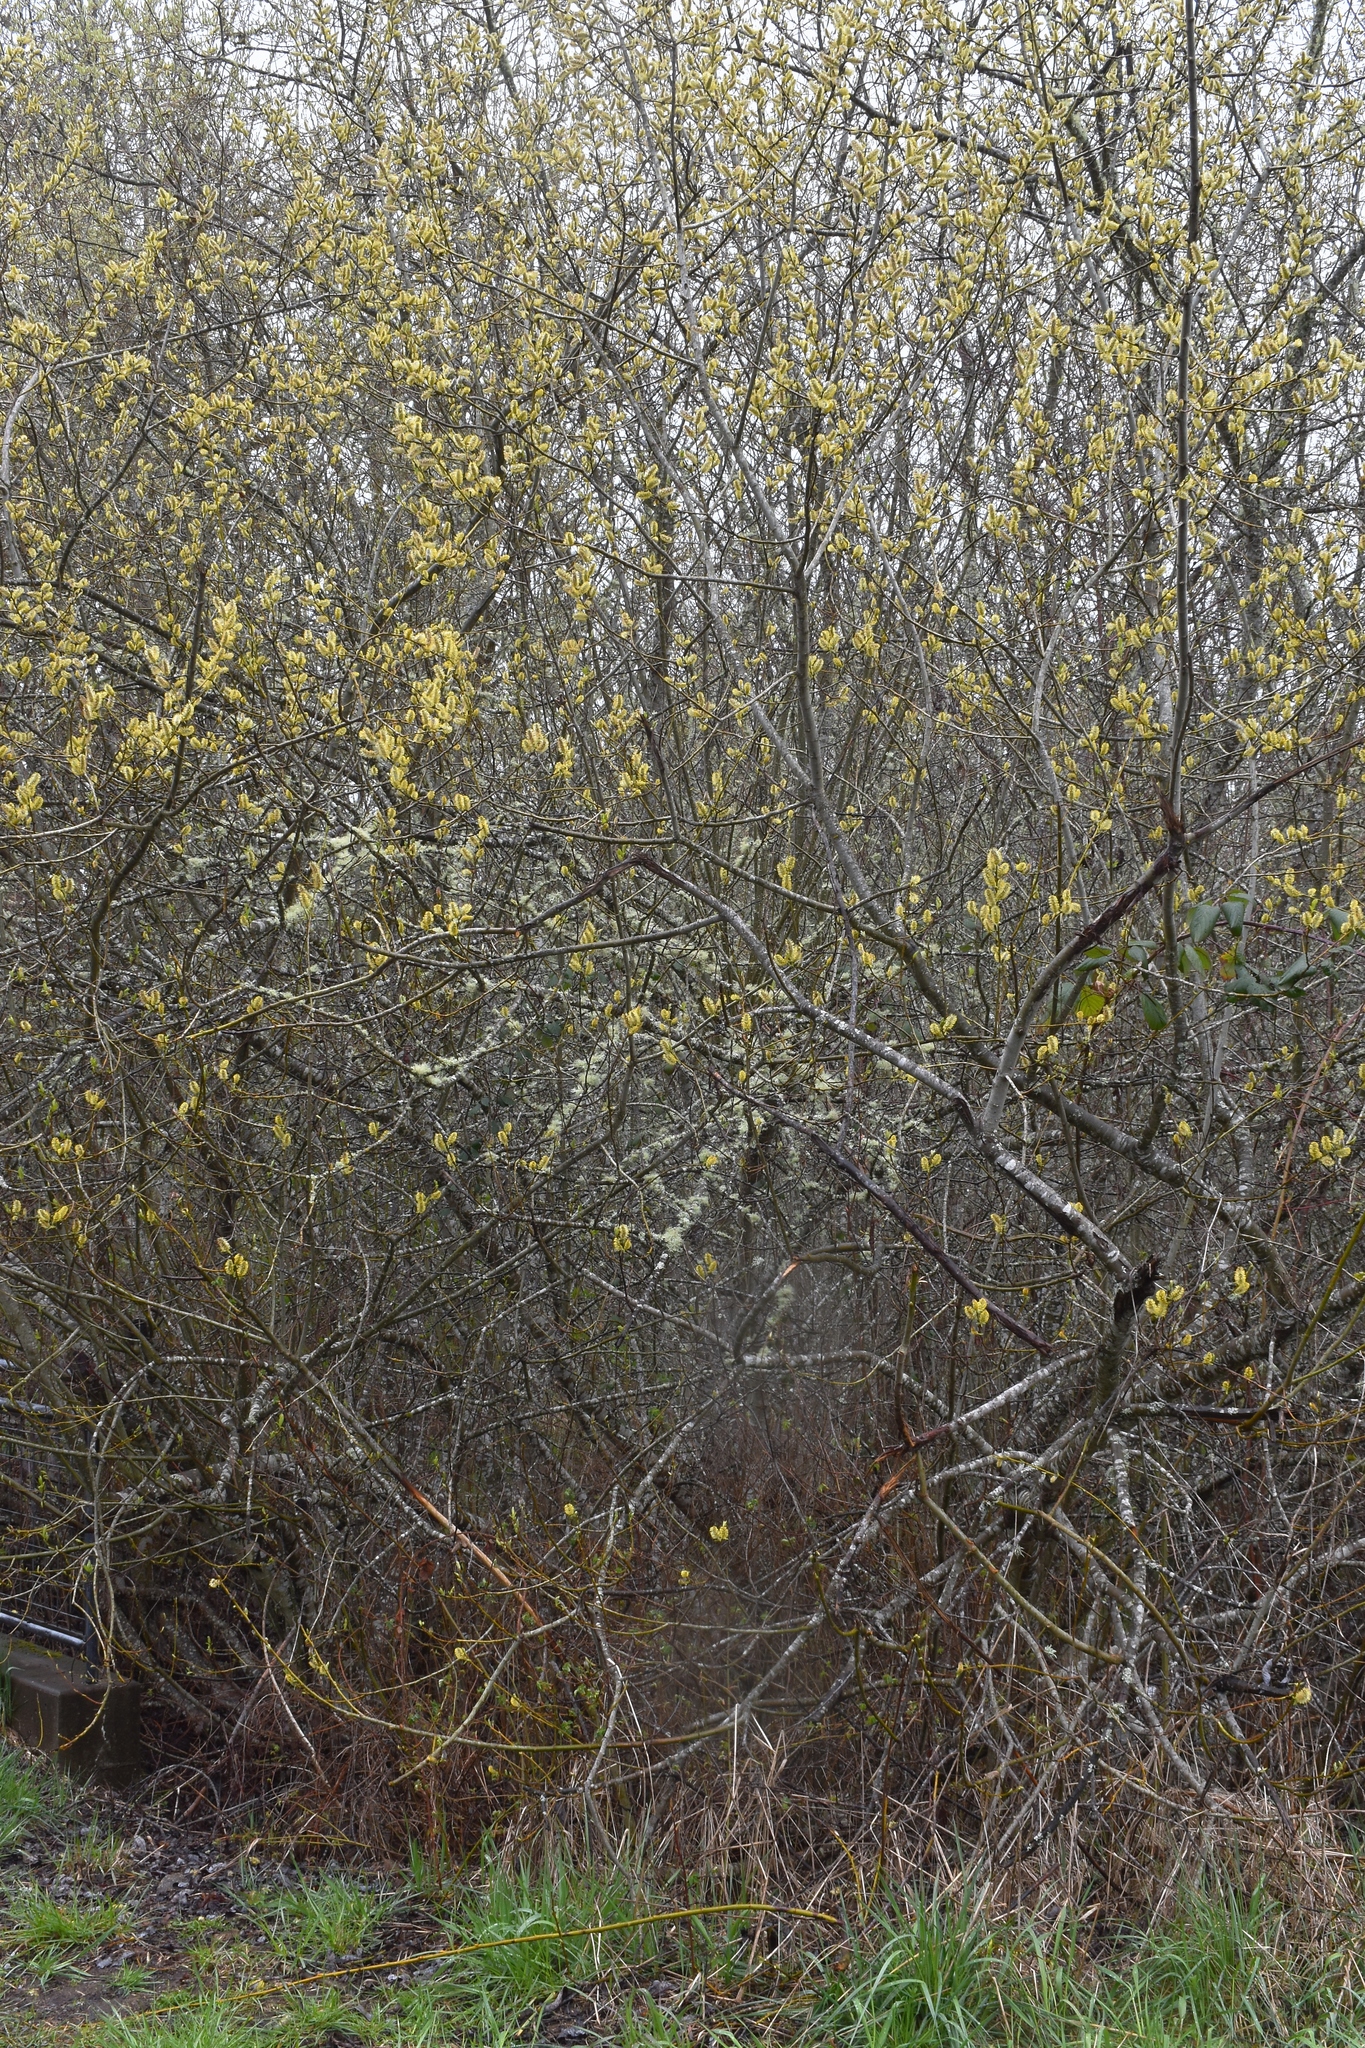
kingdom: Plantae
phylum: Tracheophyta
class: Magnoliopsida
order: Malpighiales
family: Salicaceae
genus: Salix
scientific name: Salix hookeriana
